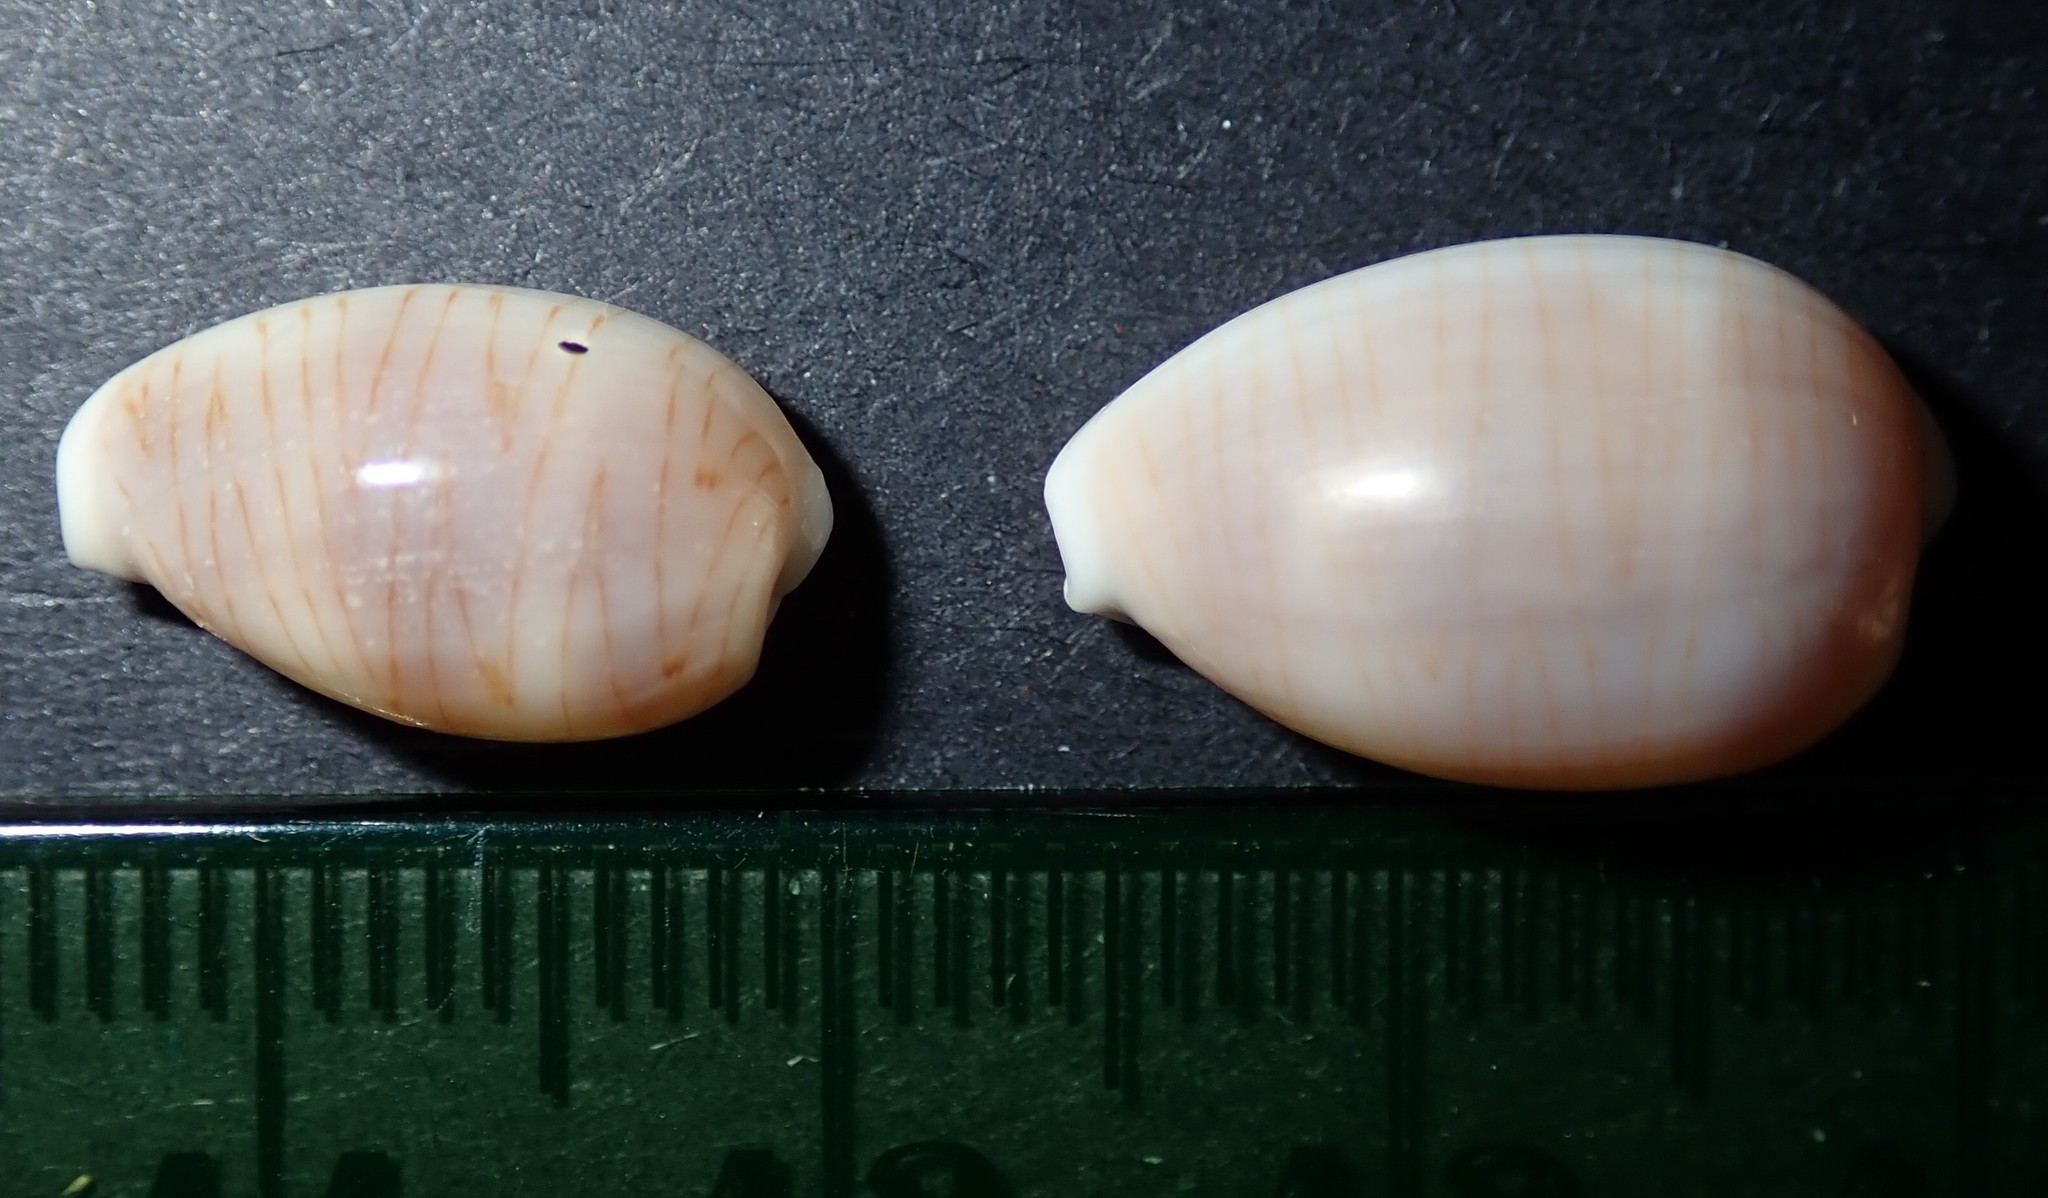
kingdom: Animalia
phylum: Mollusca
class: Gastropoda
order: Littorinimorpha
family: Cypraeidae
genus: Palmadusta
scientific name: Palmadusta clandestina
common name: Cowrie
